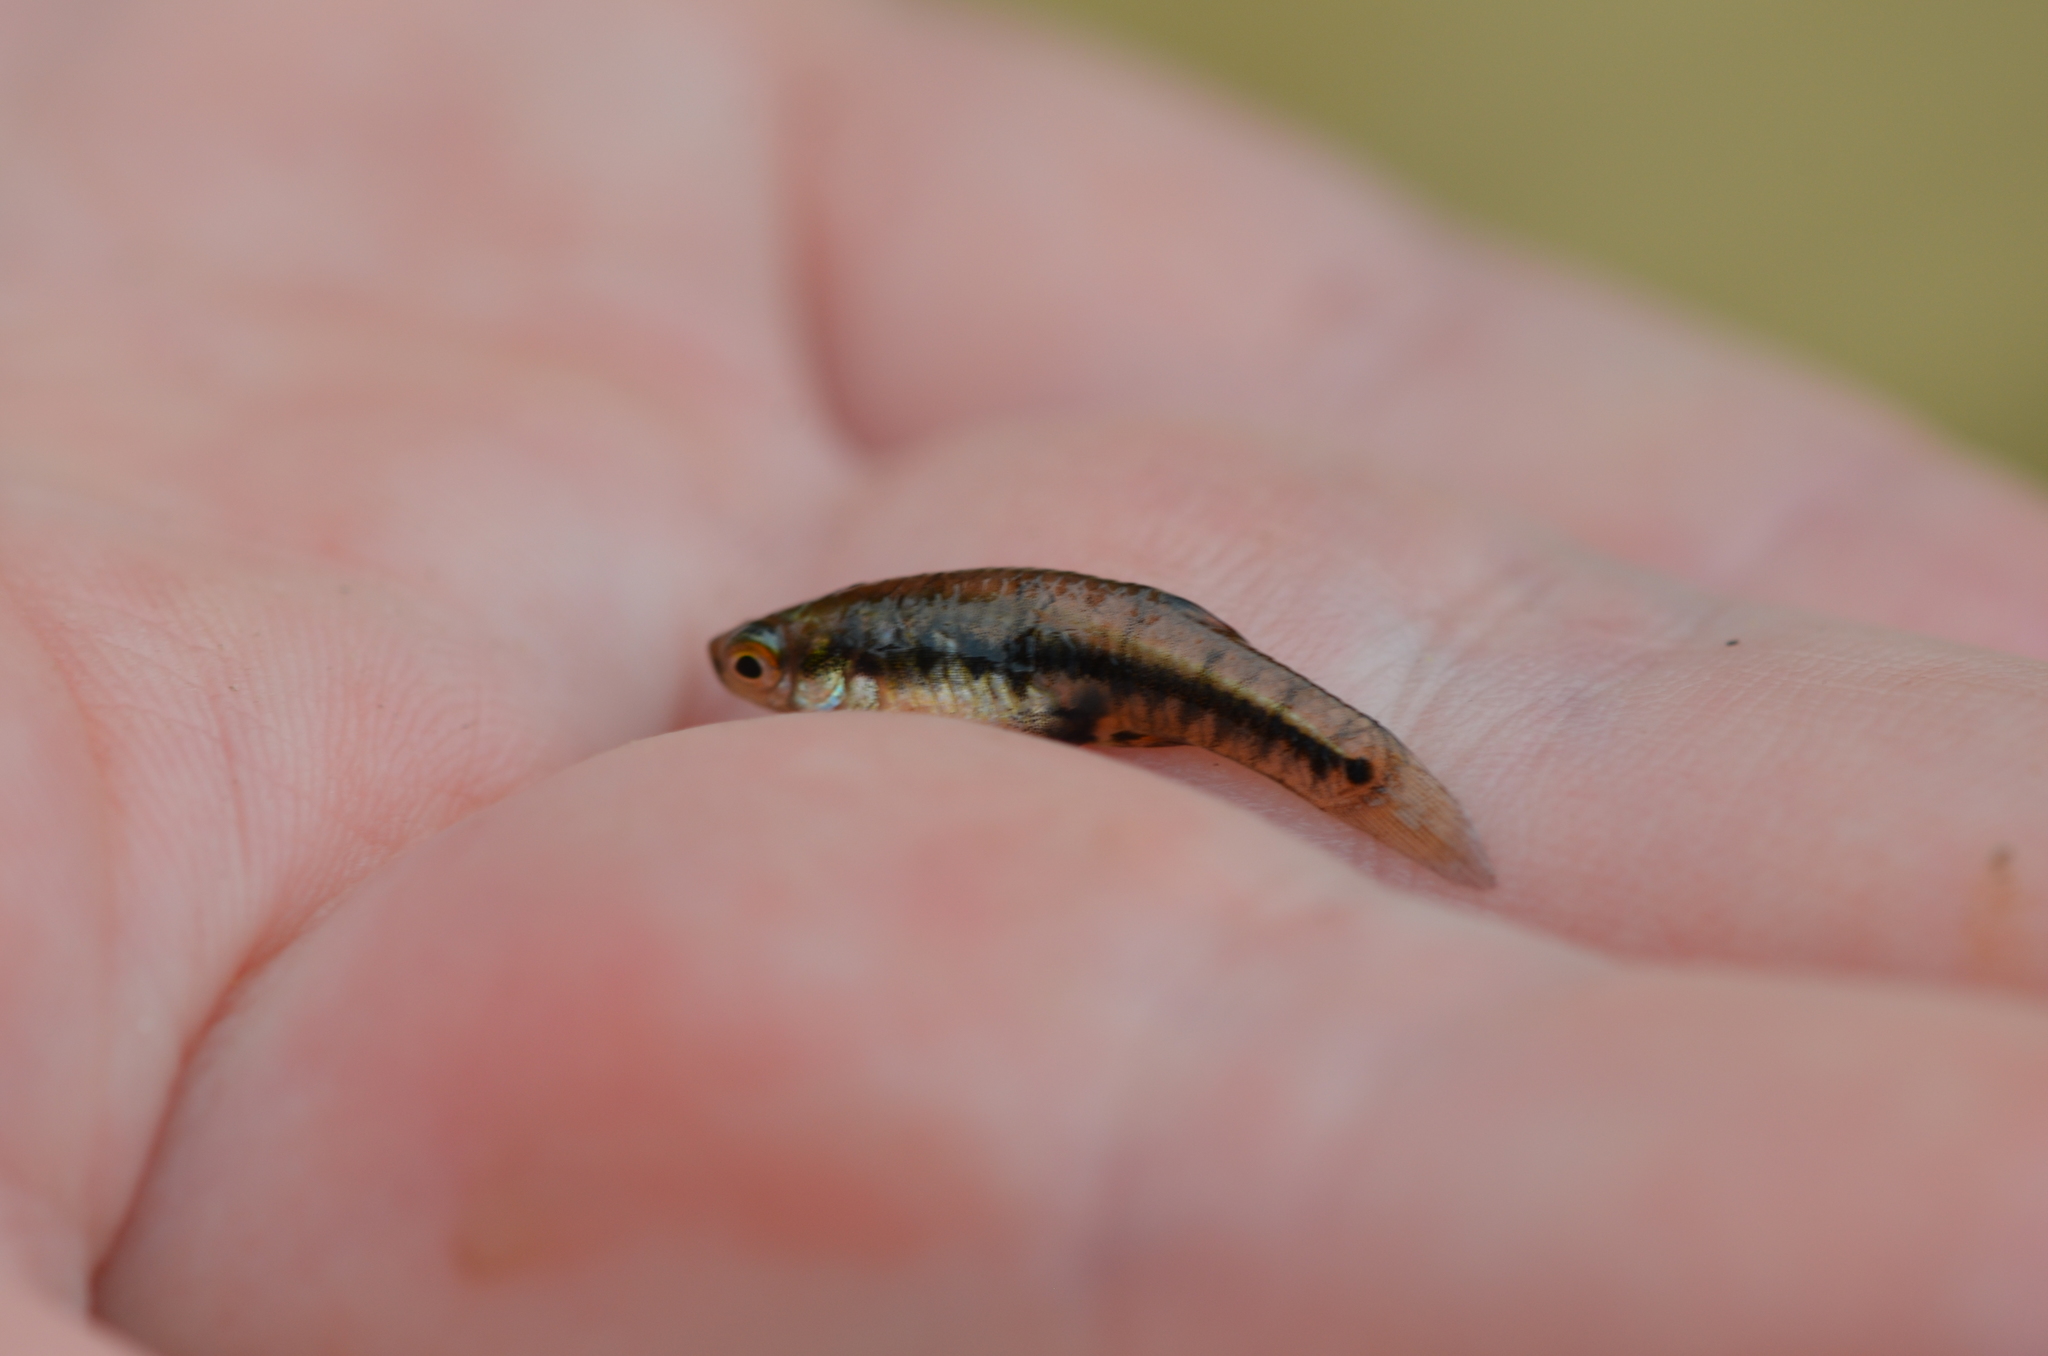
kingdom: Animalia
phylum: Chordata
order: Cyprinodontiformes
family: Poeciliidae
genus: Heterandria
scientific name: Heterandria formosa
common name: Least killifish
